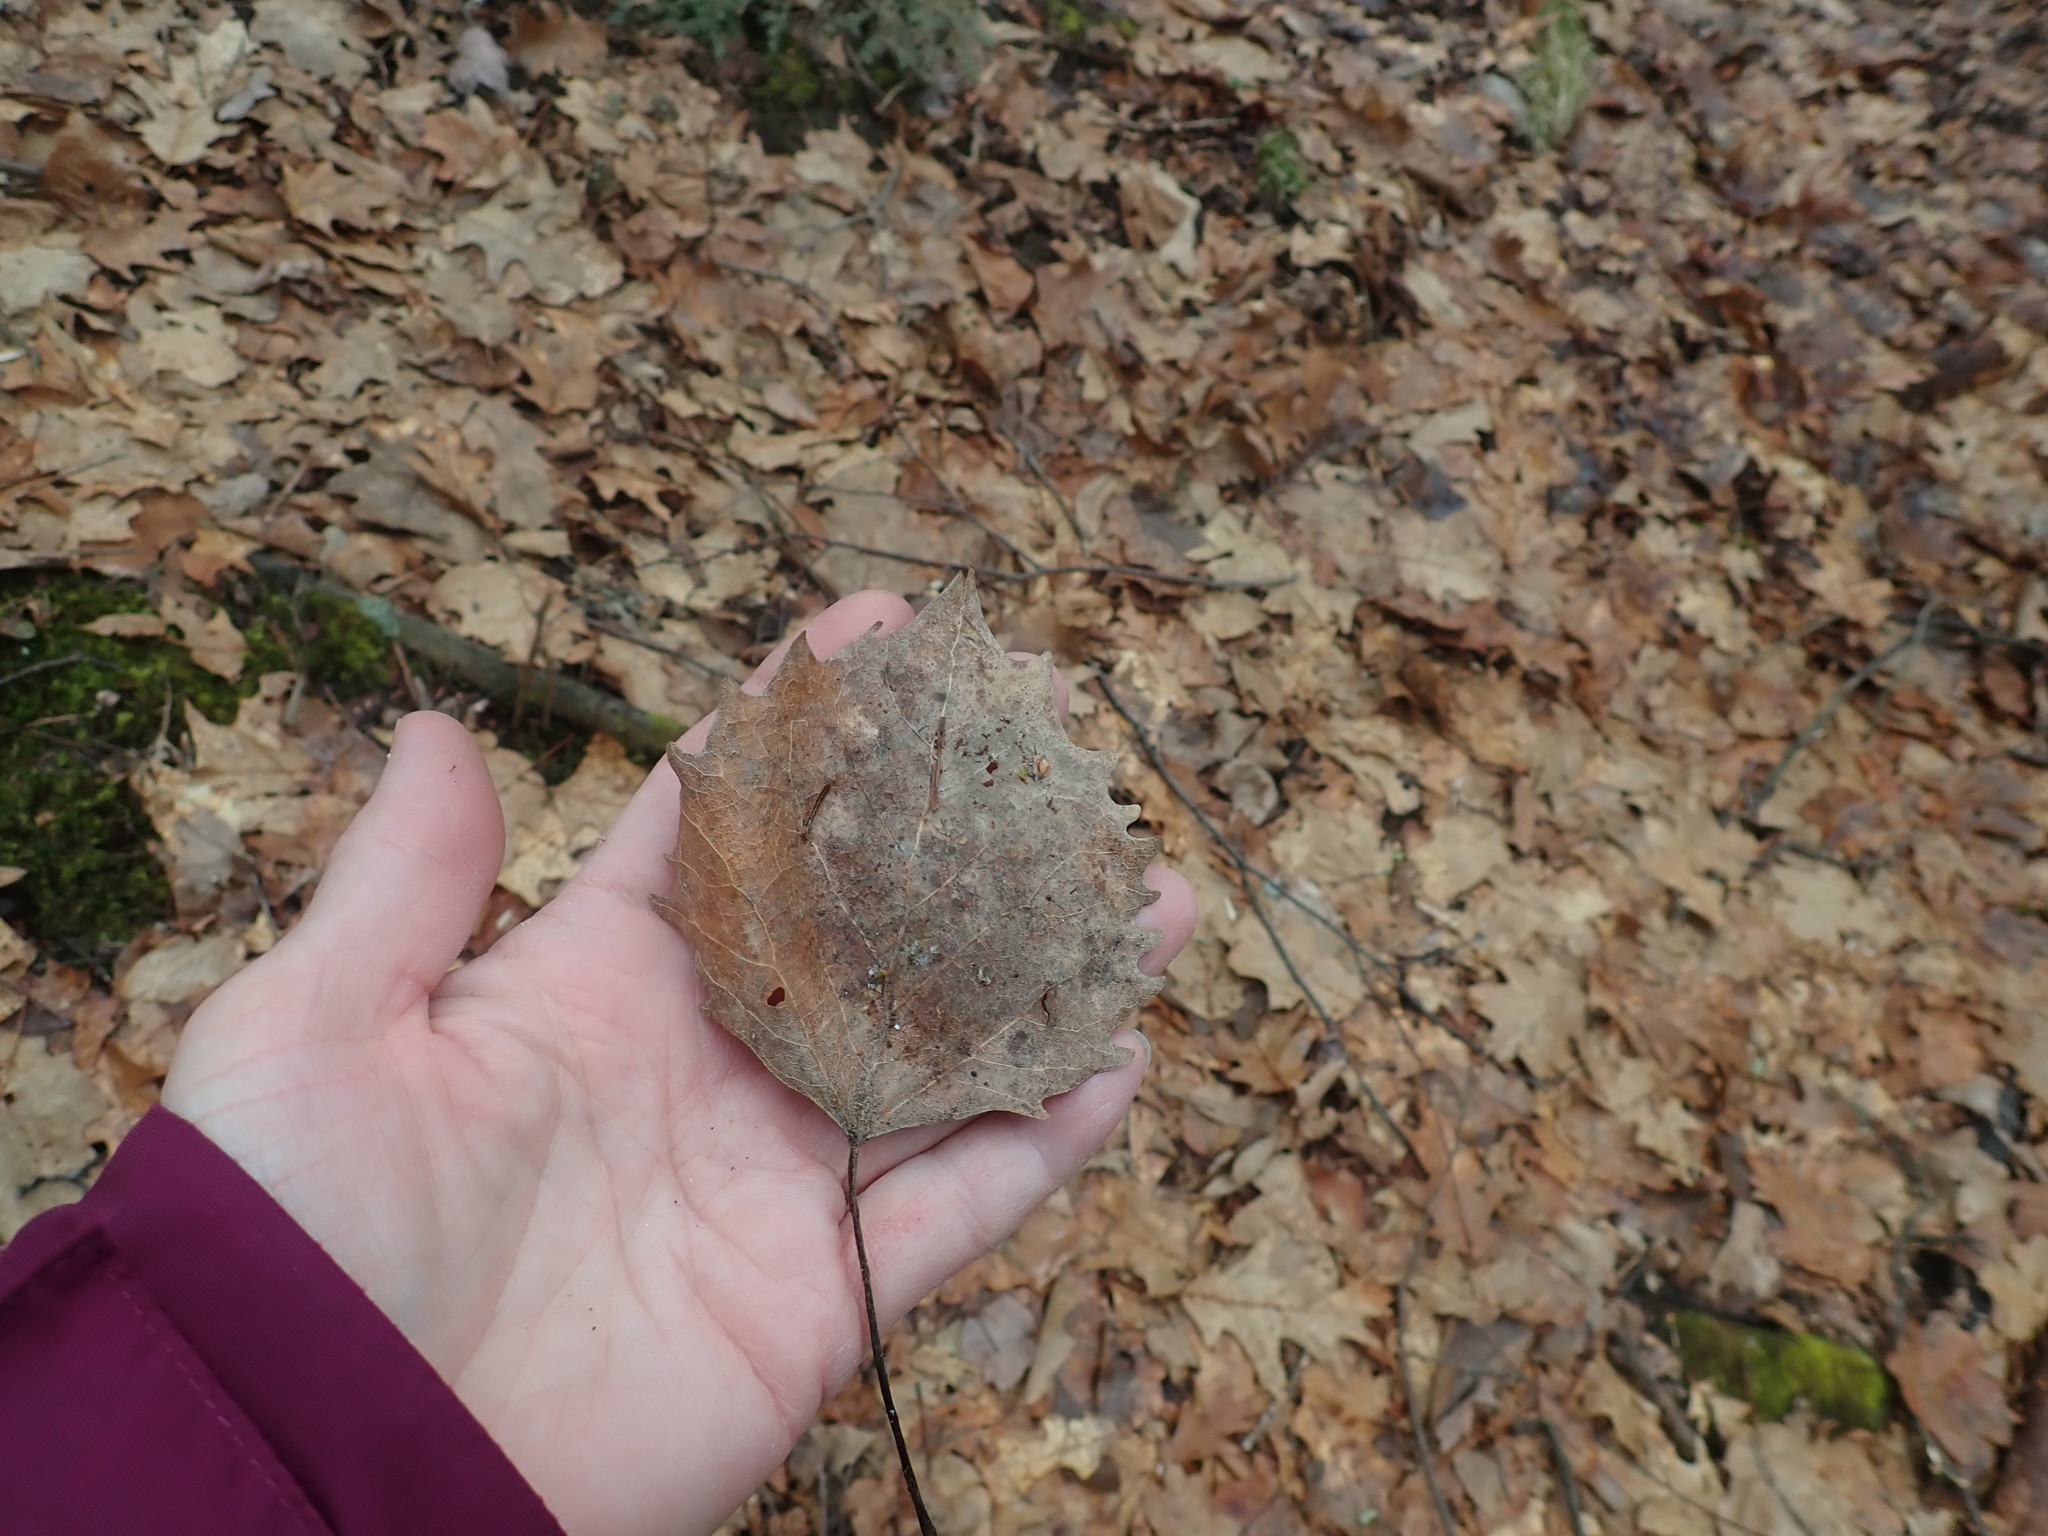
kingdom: Plantae
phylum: Tracheophyta
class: Magnoliopsida
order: Malpighiales
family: Salicaceae
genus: Populus
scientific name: Populus grandidentata
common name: Bigtooth aspen
